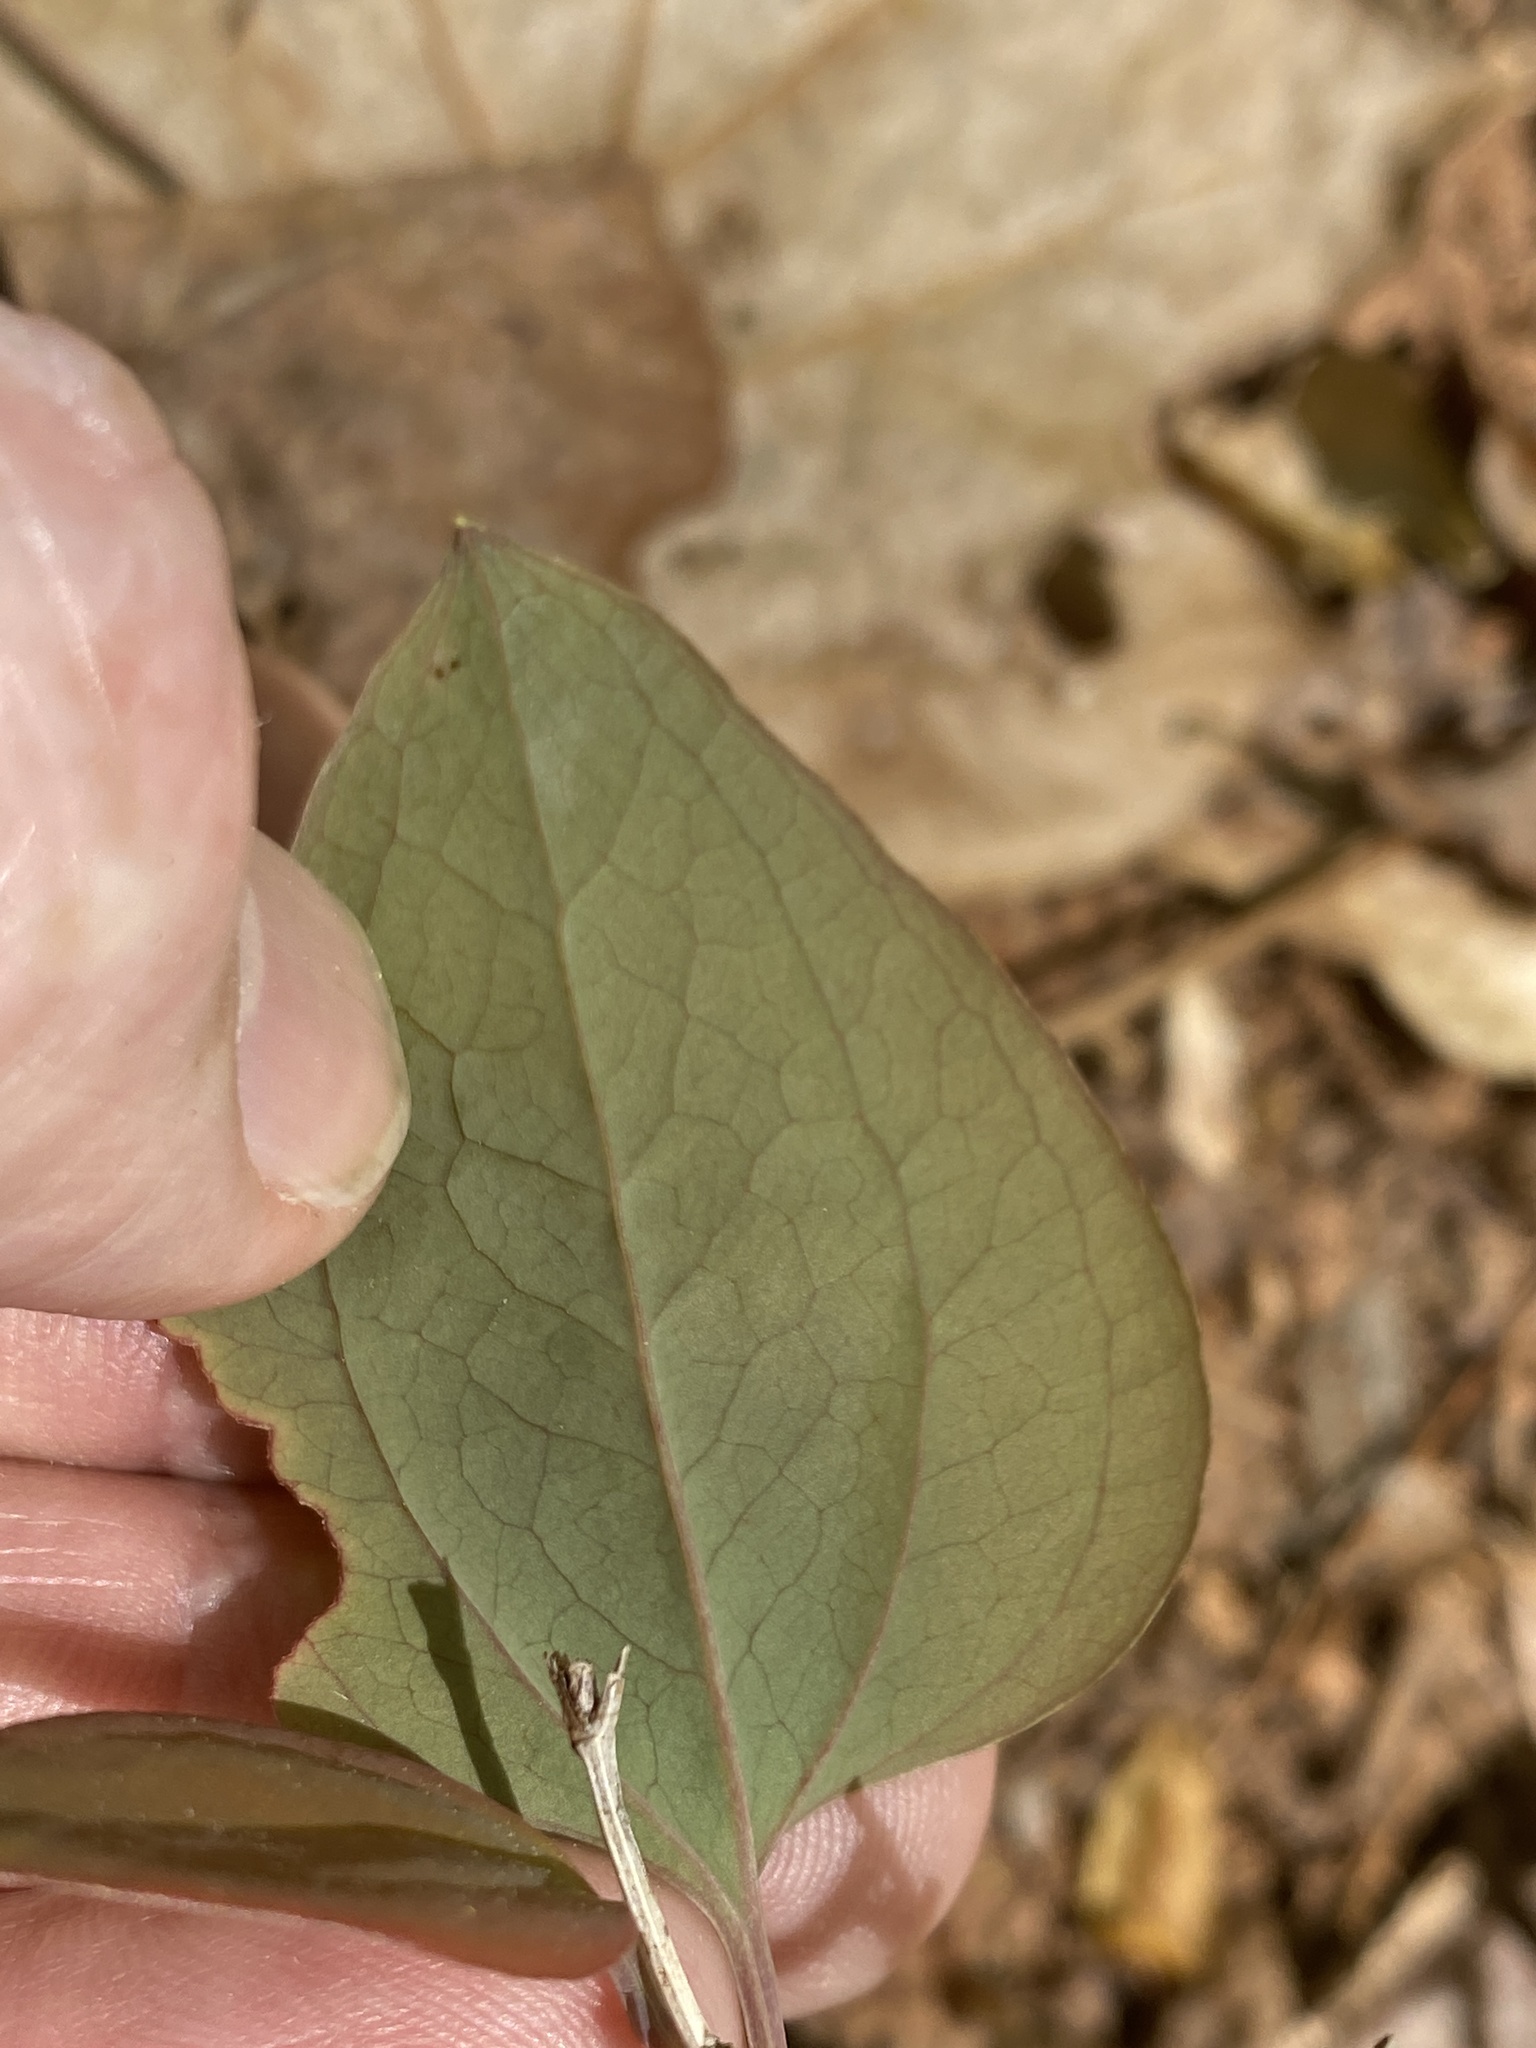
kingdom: Plantae
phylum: Tracheophyta
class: Liliopsida
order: Liliales
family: Smilacaceae
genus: Smilax
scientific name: Smilax glauca
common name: Cat greenbrier
